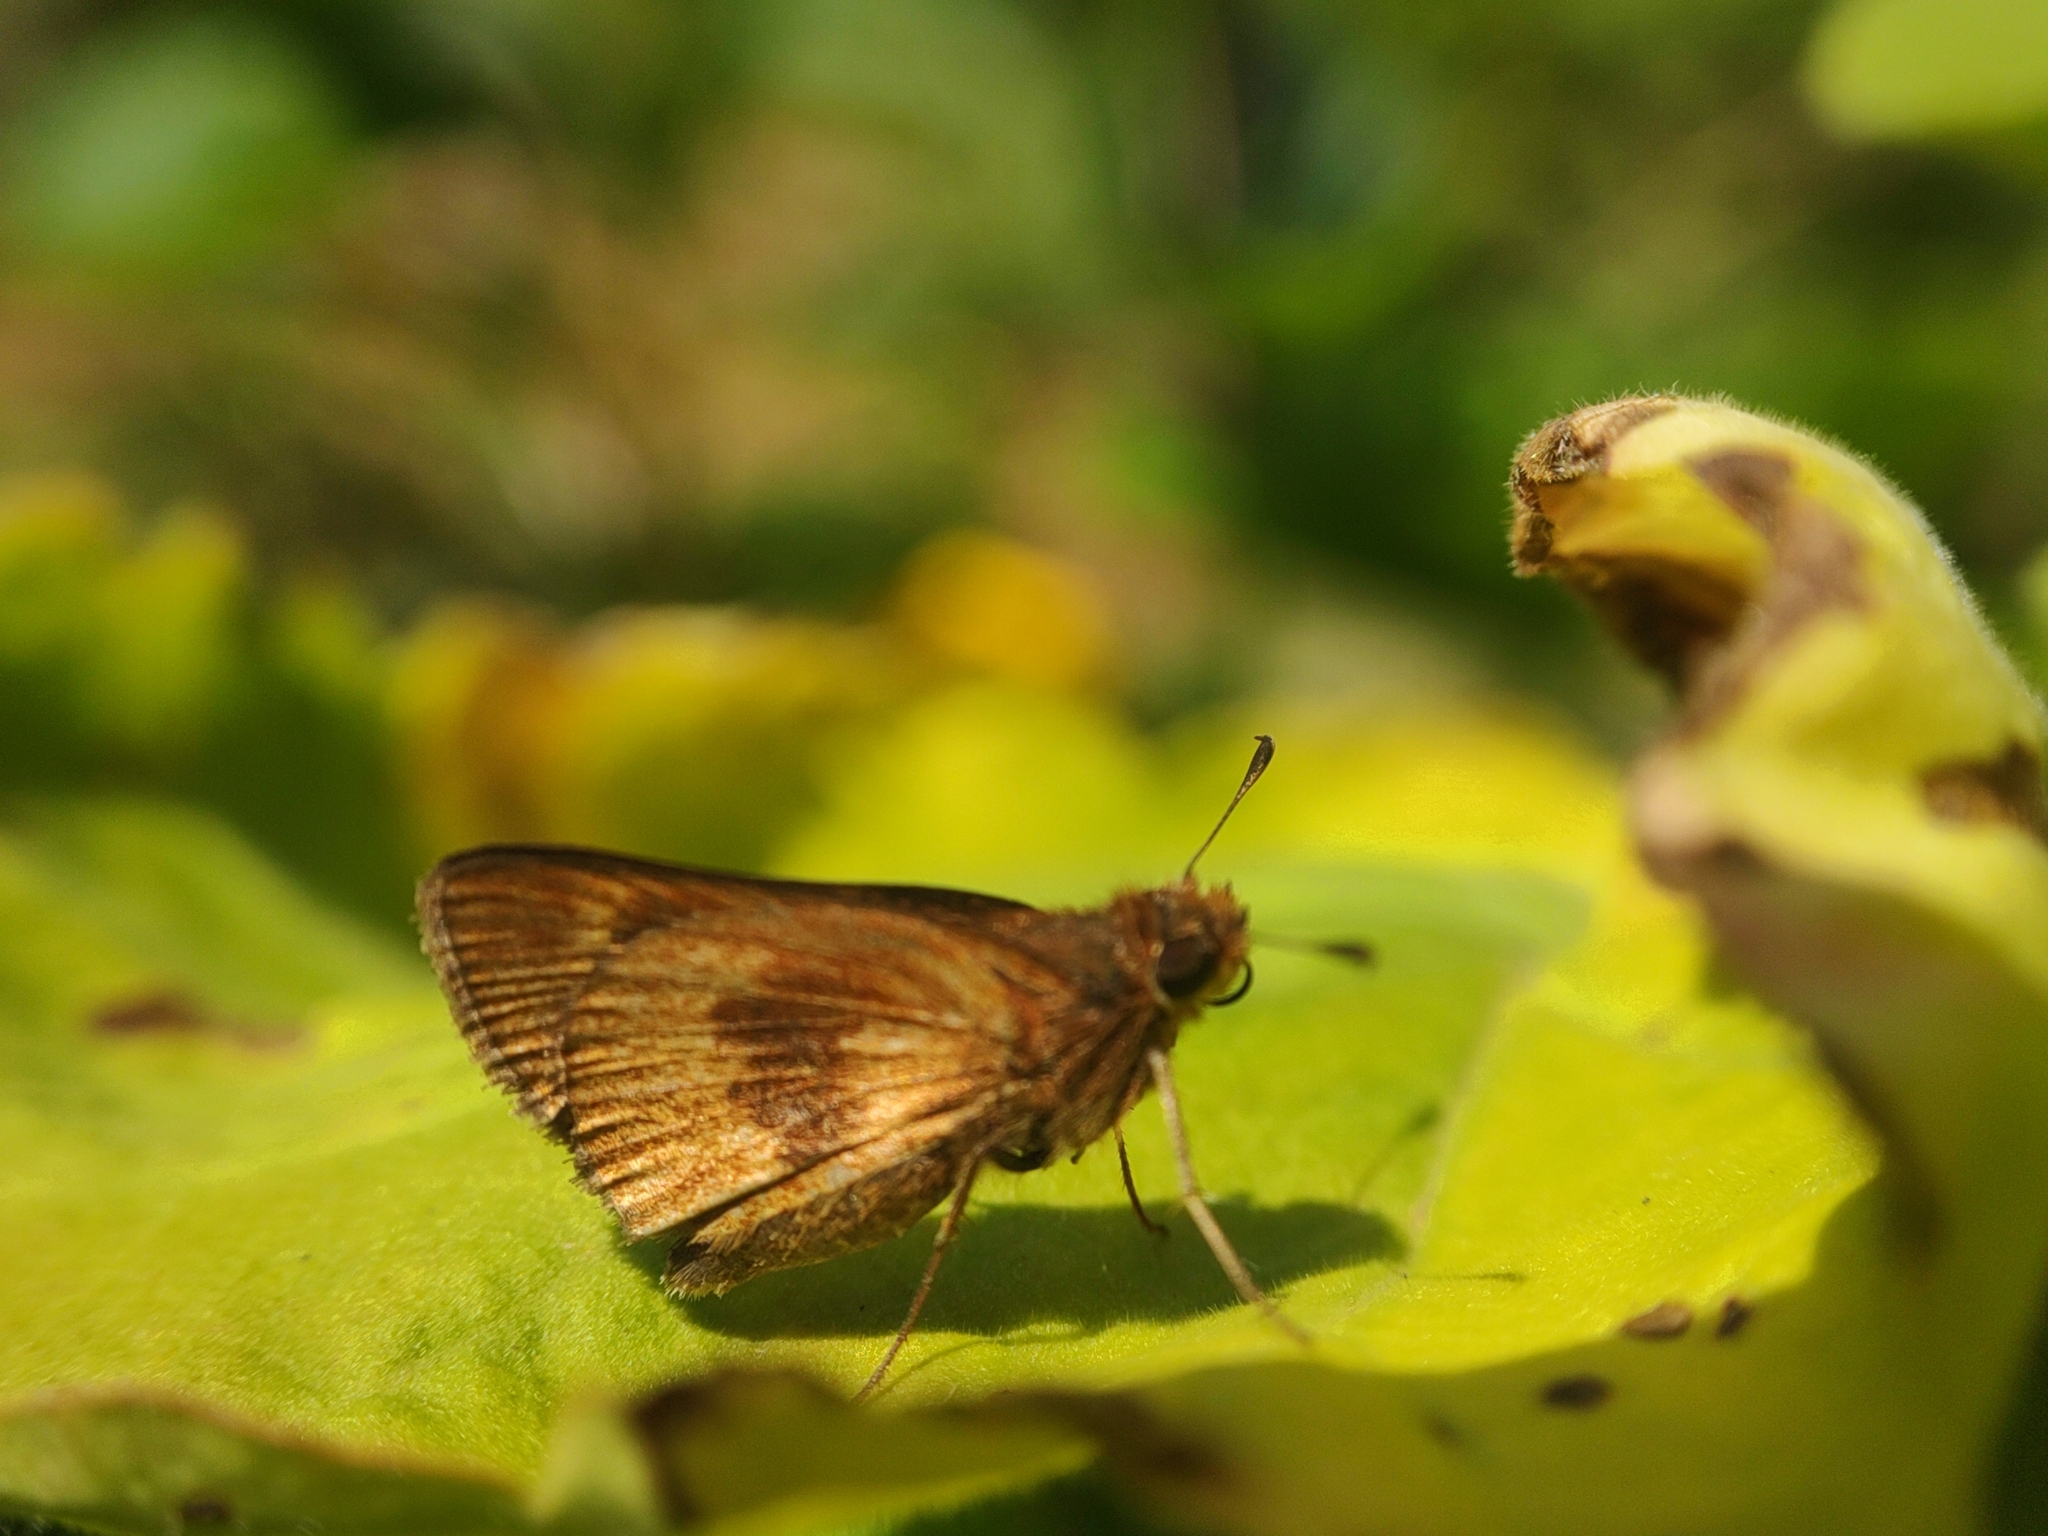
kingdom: Animalia
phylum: Arthropoda
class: Insecta
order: Lepidoptera
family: Hesperiidae
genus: Conga
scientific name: Conga iheringii
